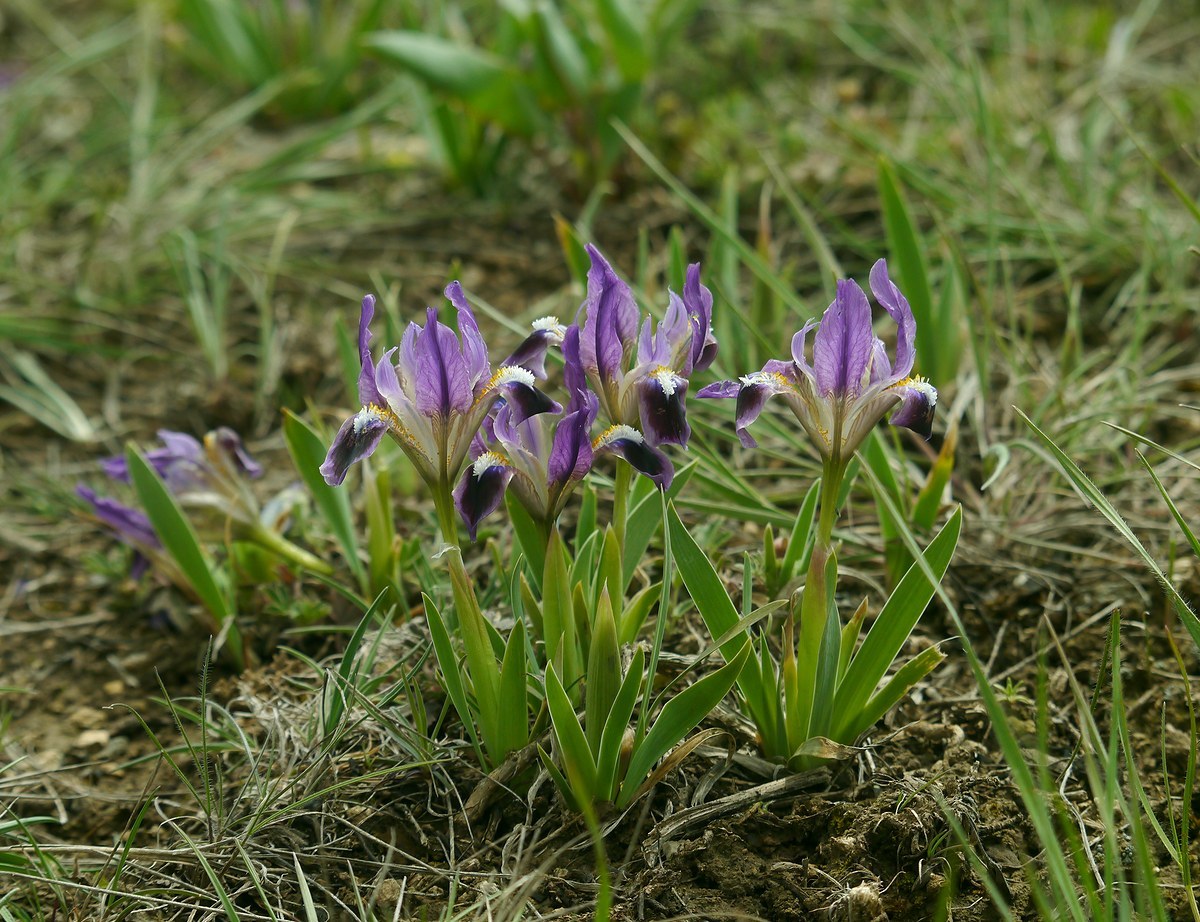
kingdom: Plantae
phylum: Tracheophyta
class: Liliopsida
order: Asparagales
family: Iridaceae
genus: Iris
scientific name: Iris pumila
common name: Dwarf iris
